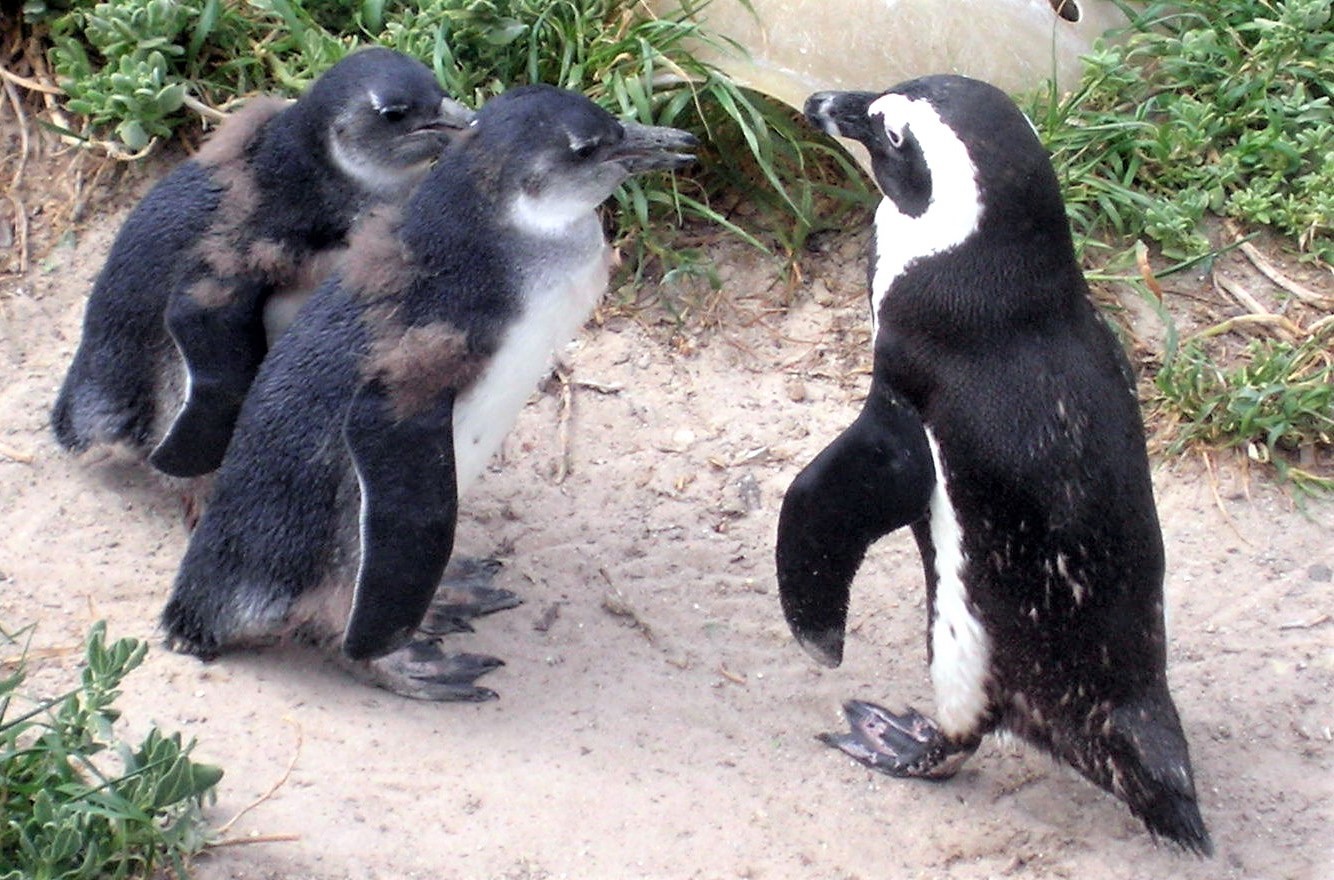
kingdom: Animalia
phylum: Chordata
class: Aves
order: Sphenisciformes
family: Spheniscidae
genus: Spheniscus
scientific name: Spheniscus demersus
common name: African penguin
